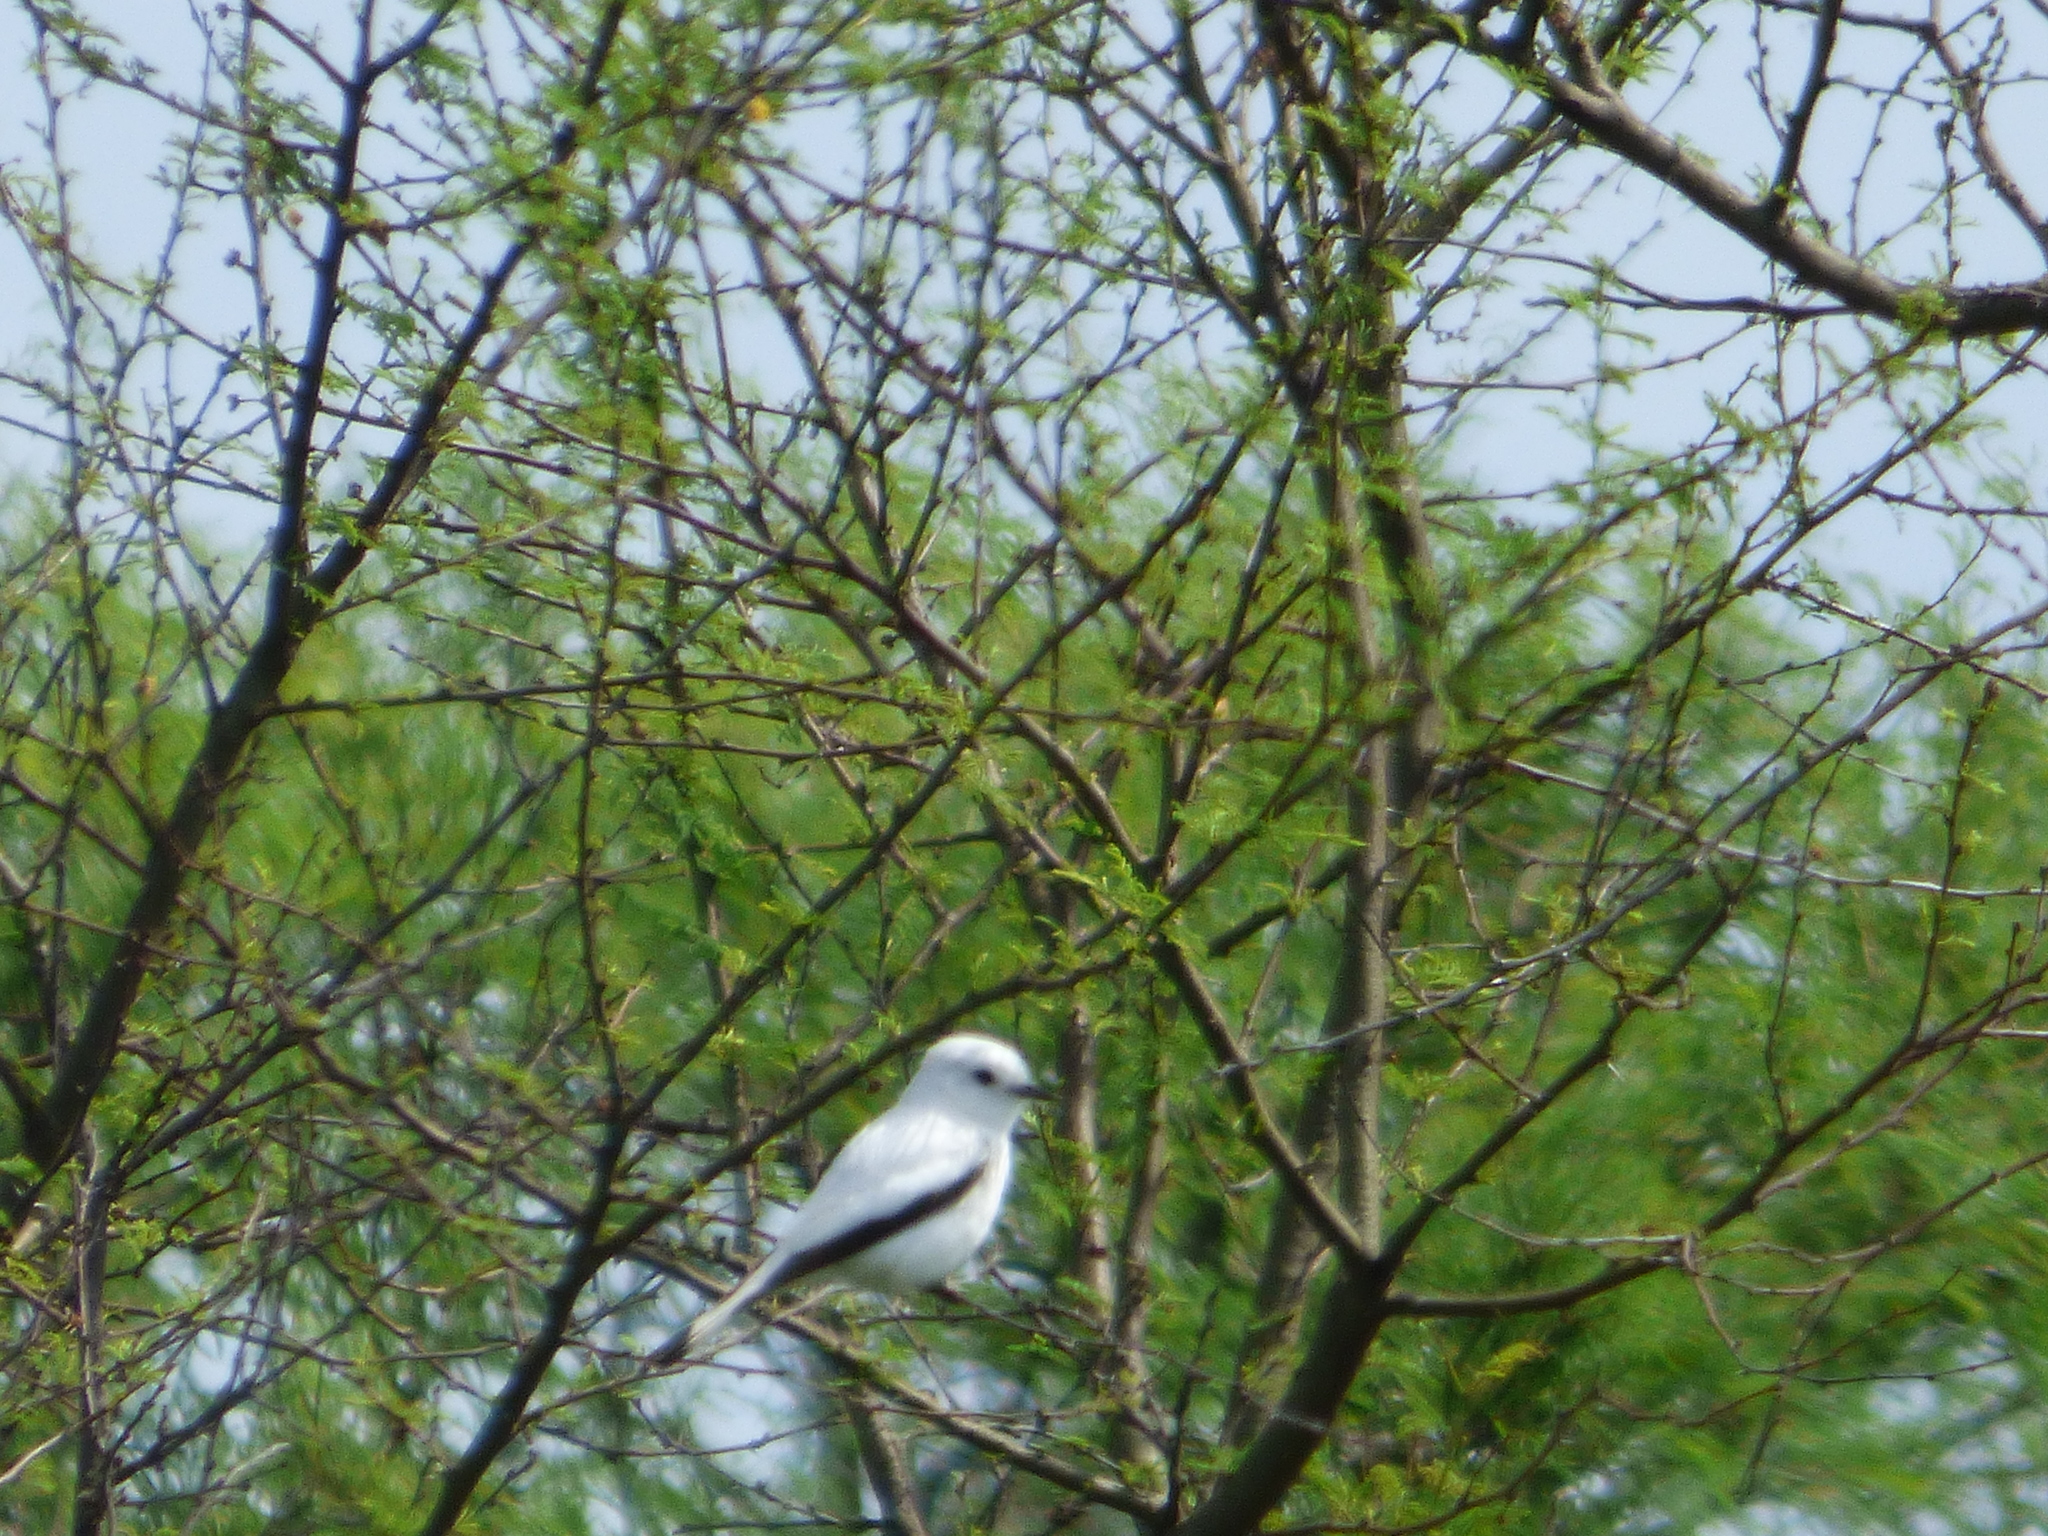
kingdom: Animalia
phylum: Chordata
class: Aves
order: Passeriformes
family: Tyrannidae
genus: Xolmis
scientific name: Xolmis irupero
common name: White monjita
